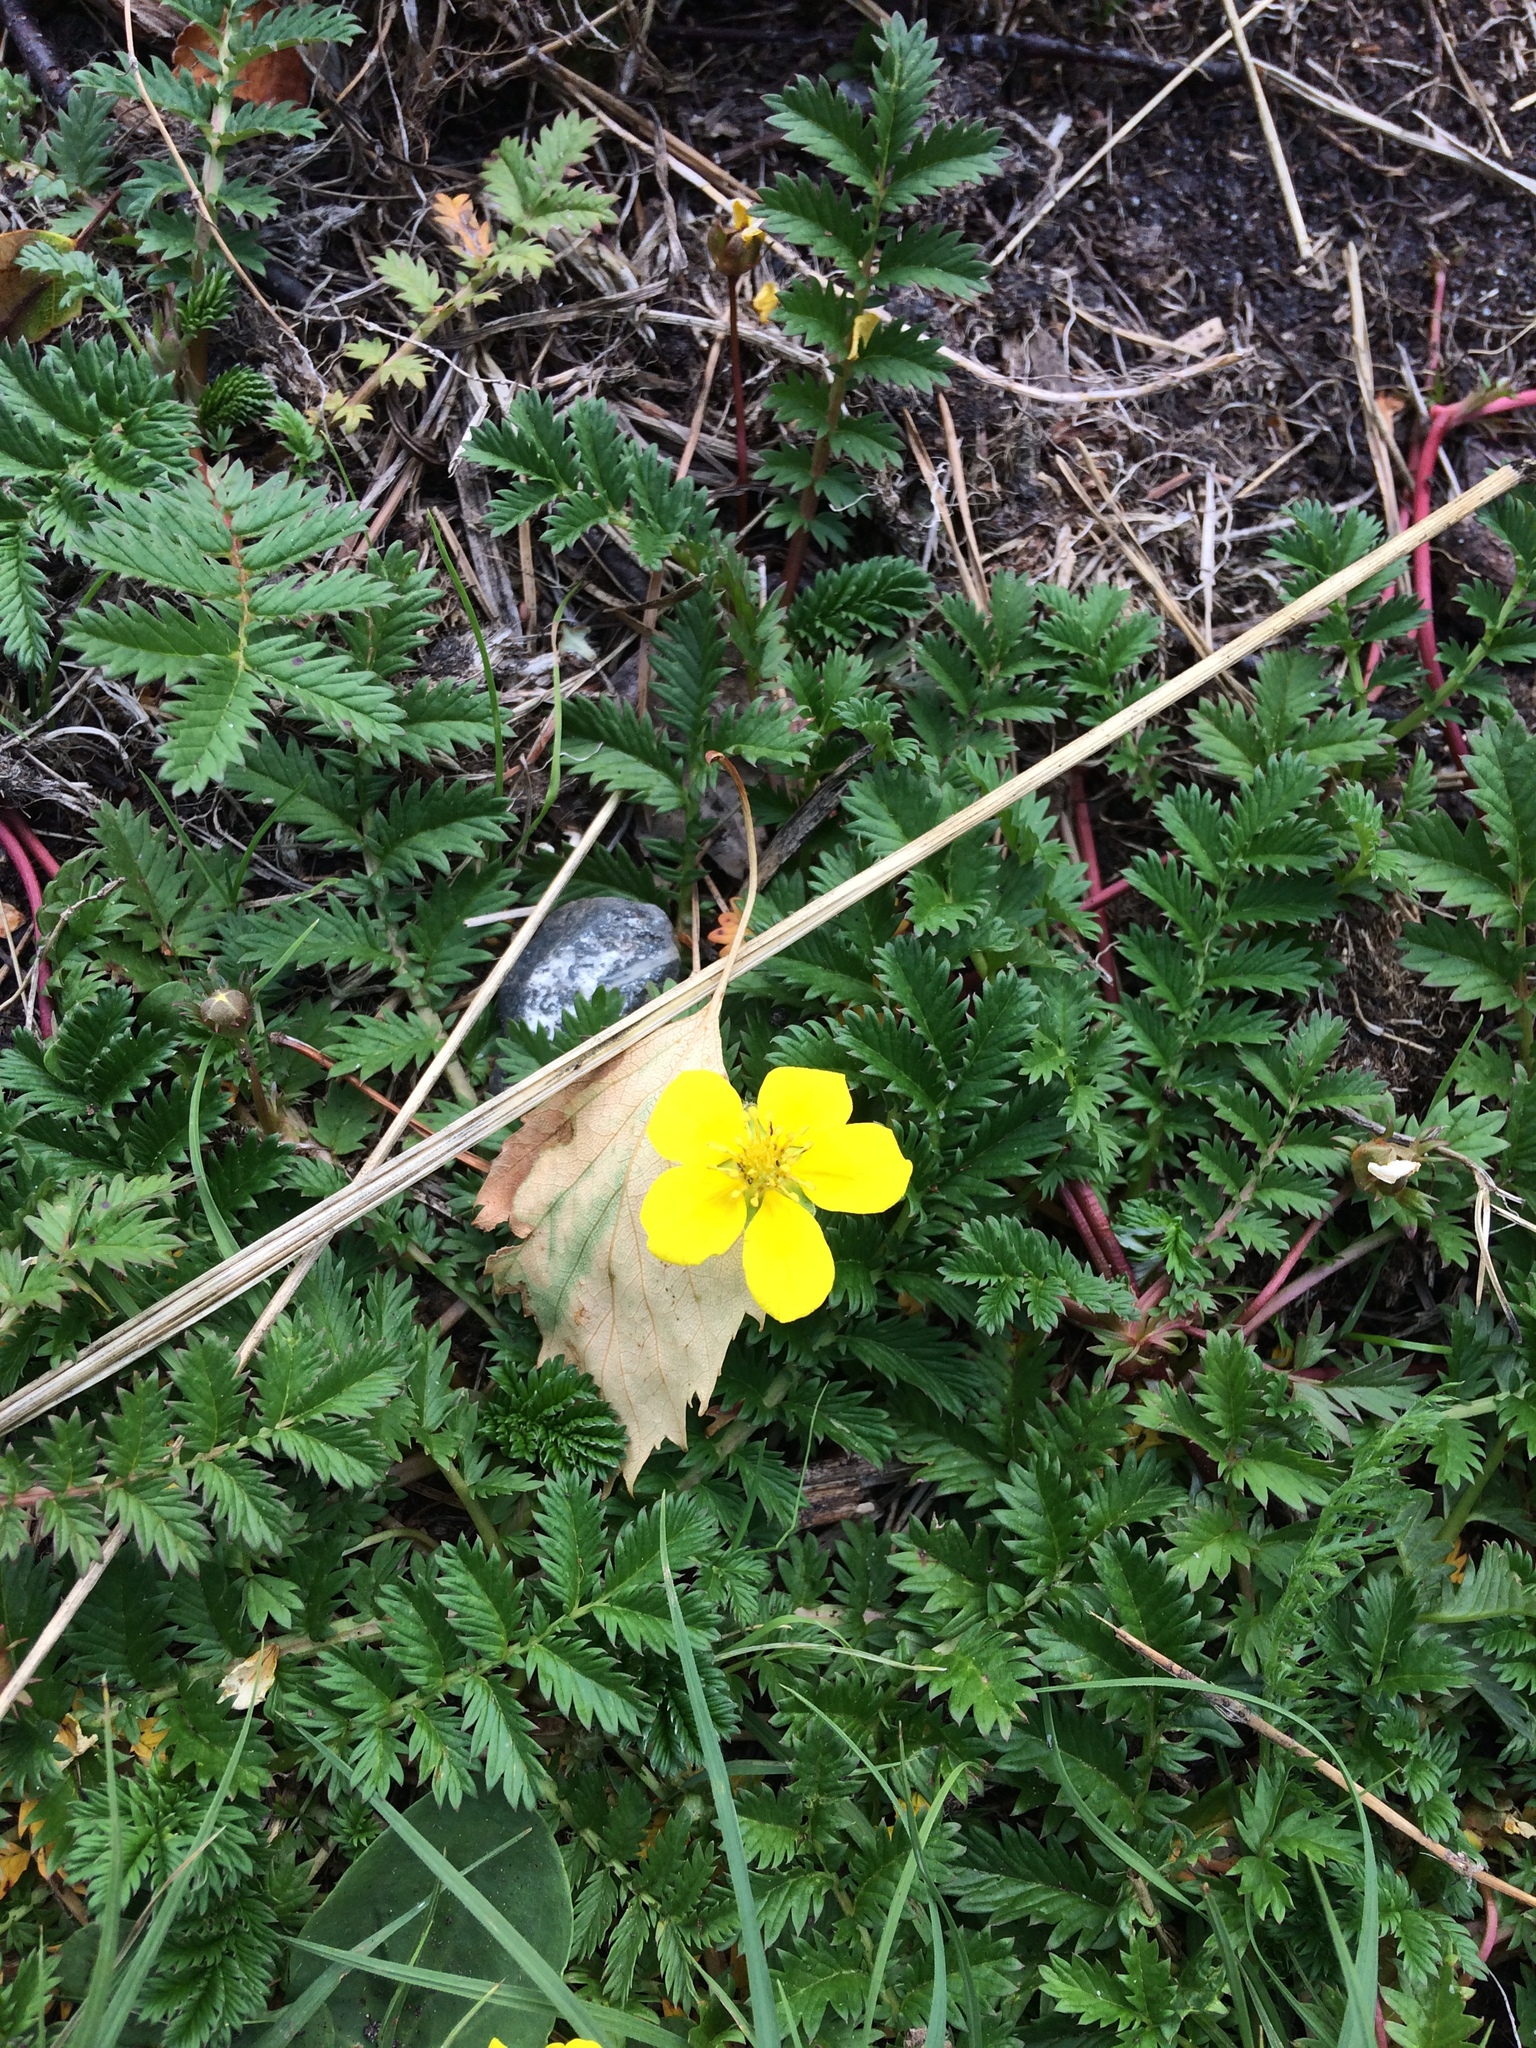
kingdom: Plantae
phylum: Tracheophyta
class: Magnoliopsida
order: Rosales
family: Rosaceae
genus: Argentina
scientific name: Argentina anserina
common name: Common silverweed
